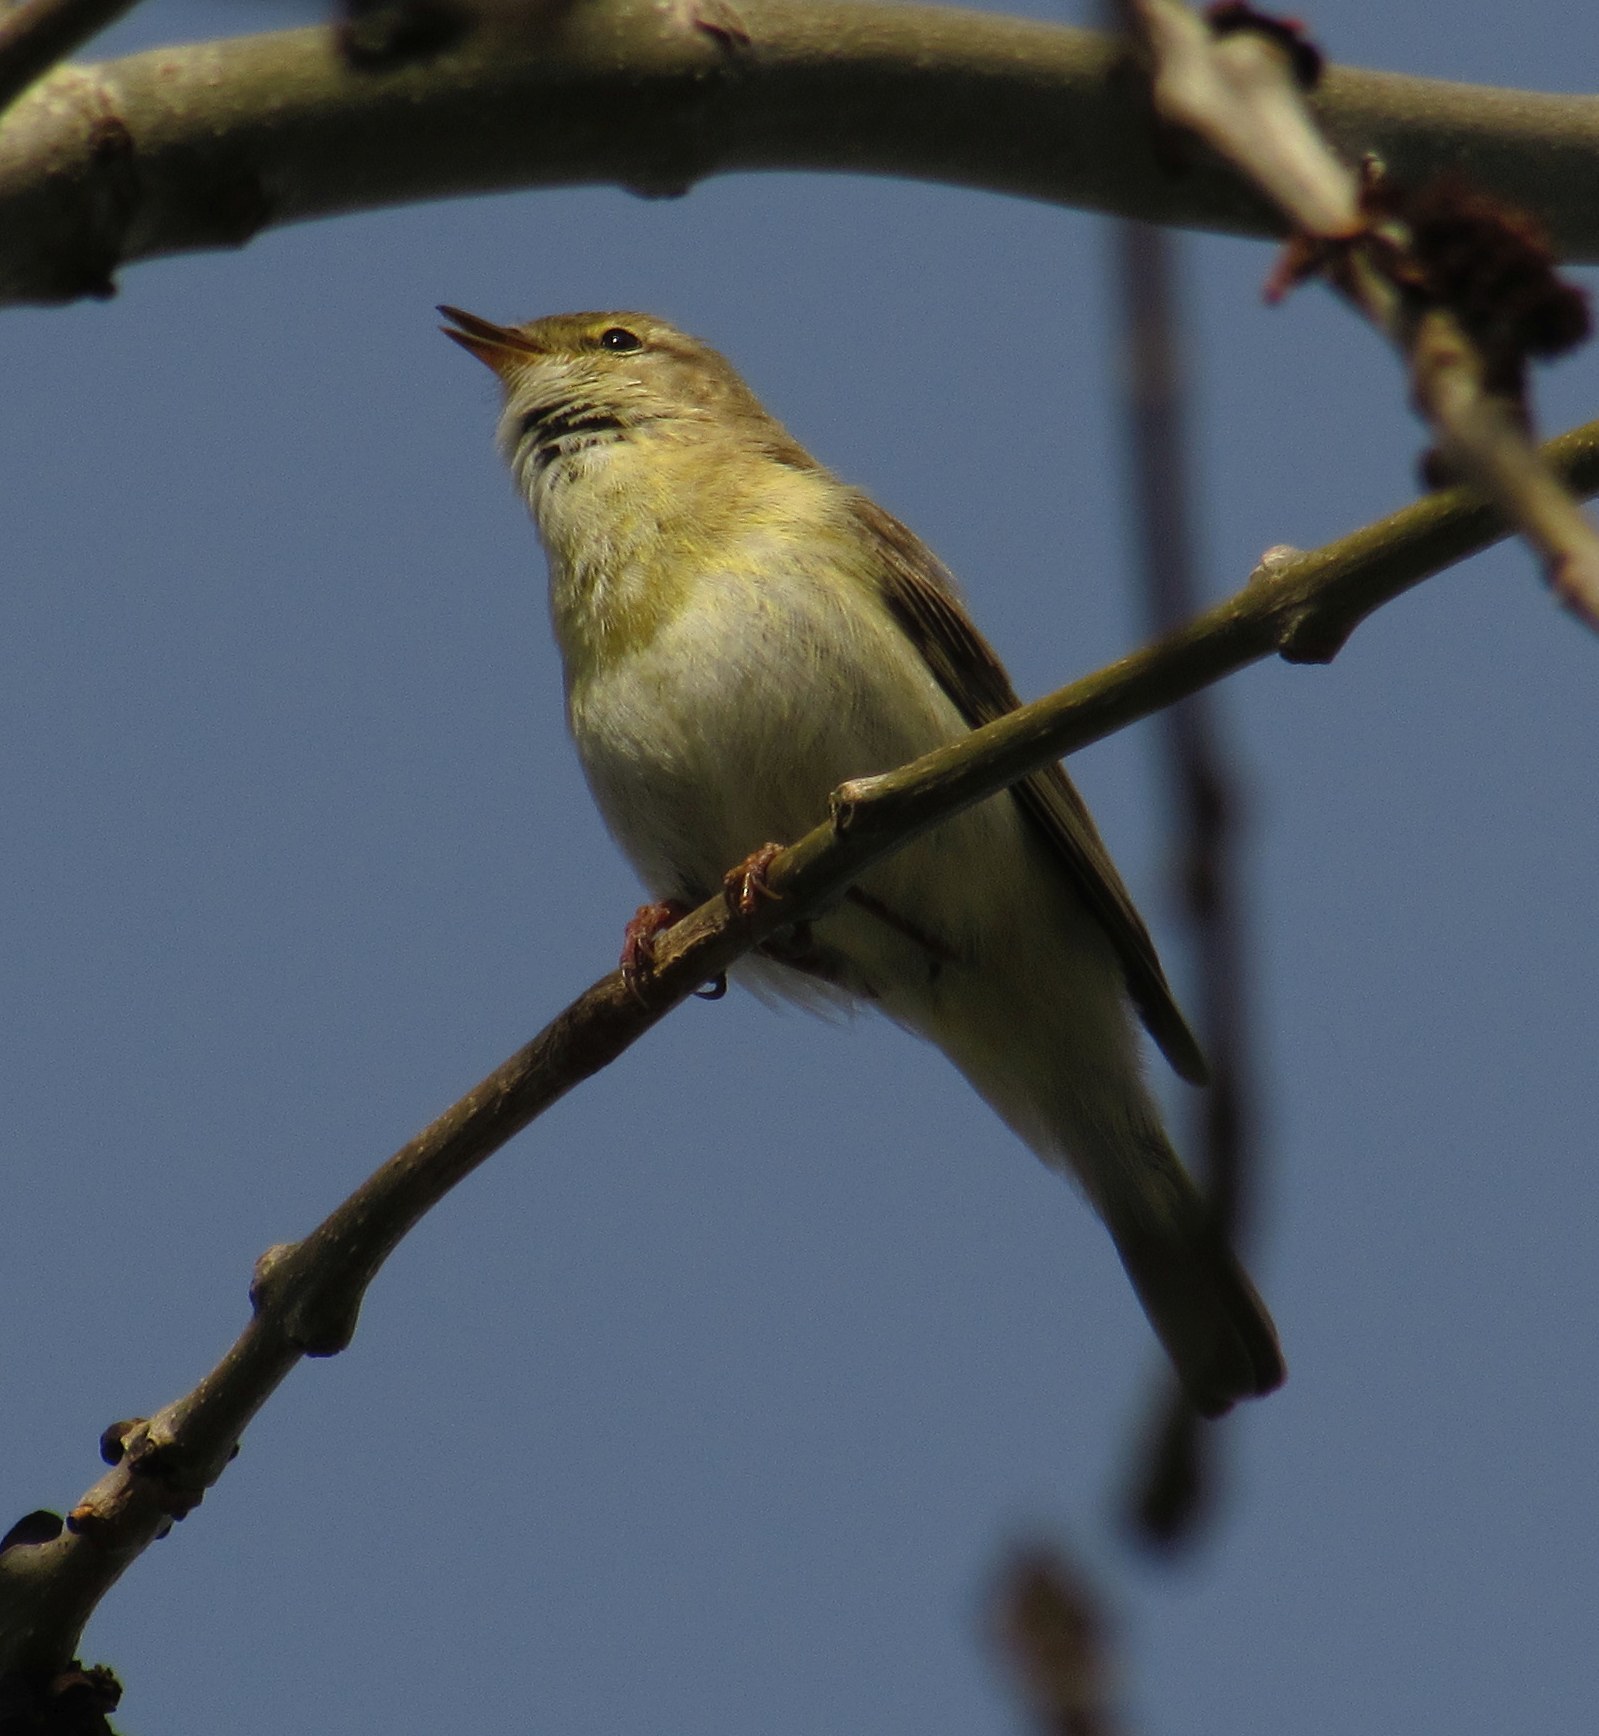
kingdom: Animalia
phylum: Chordata
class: Aves
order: Passeriformes
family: Phylloscopidae
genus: Phylloscopus
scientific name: Phylloscopus trochilus
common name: Willow warbler
